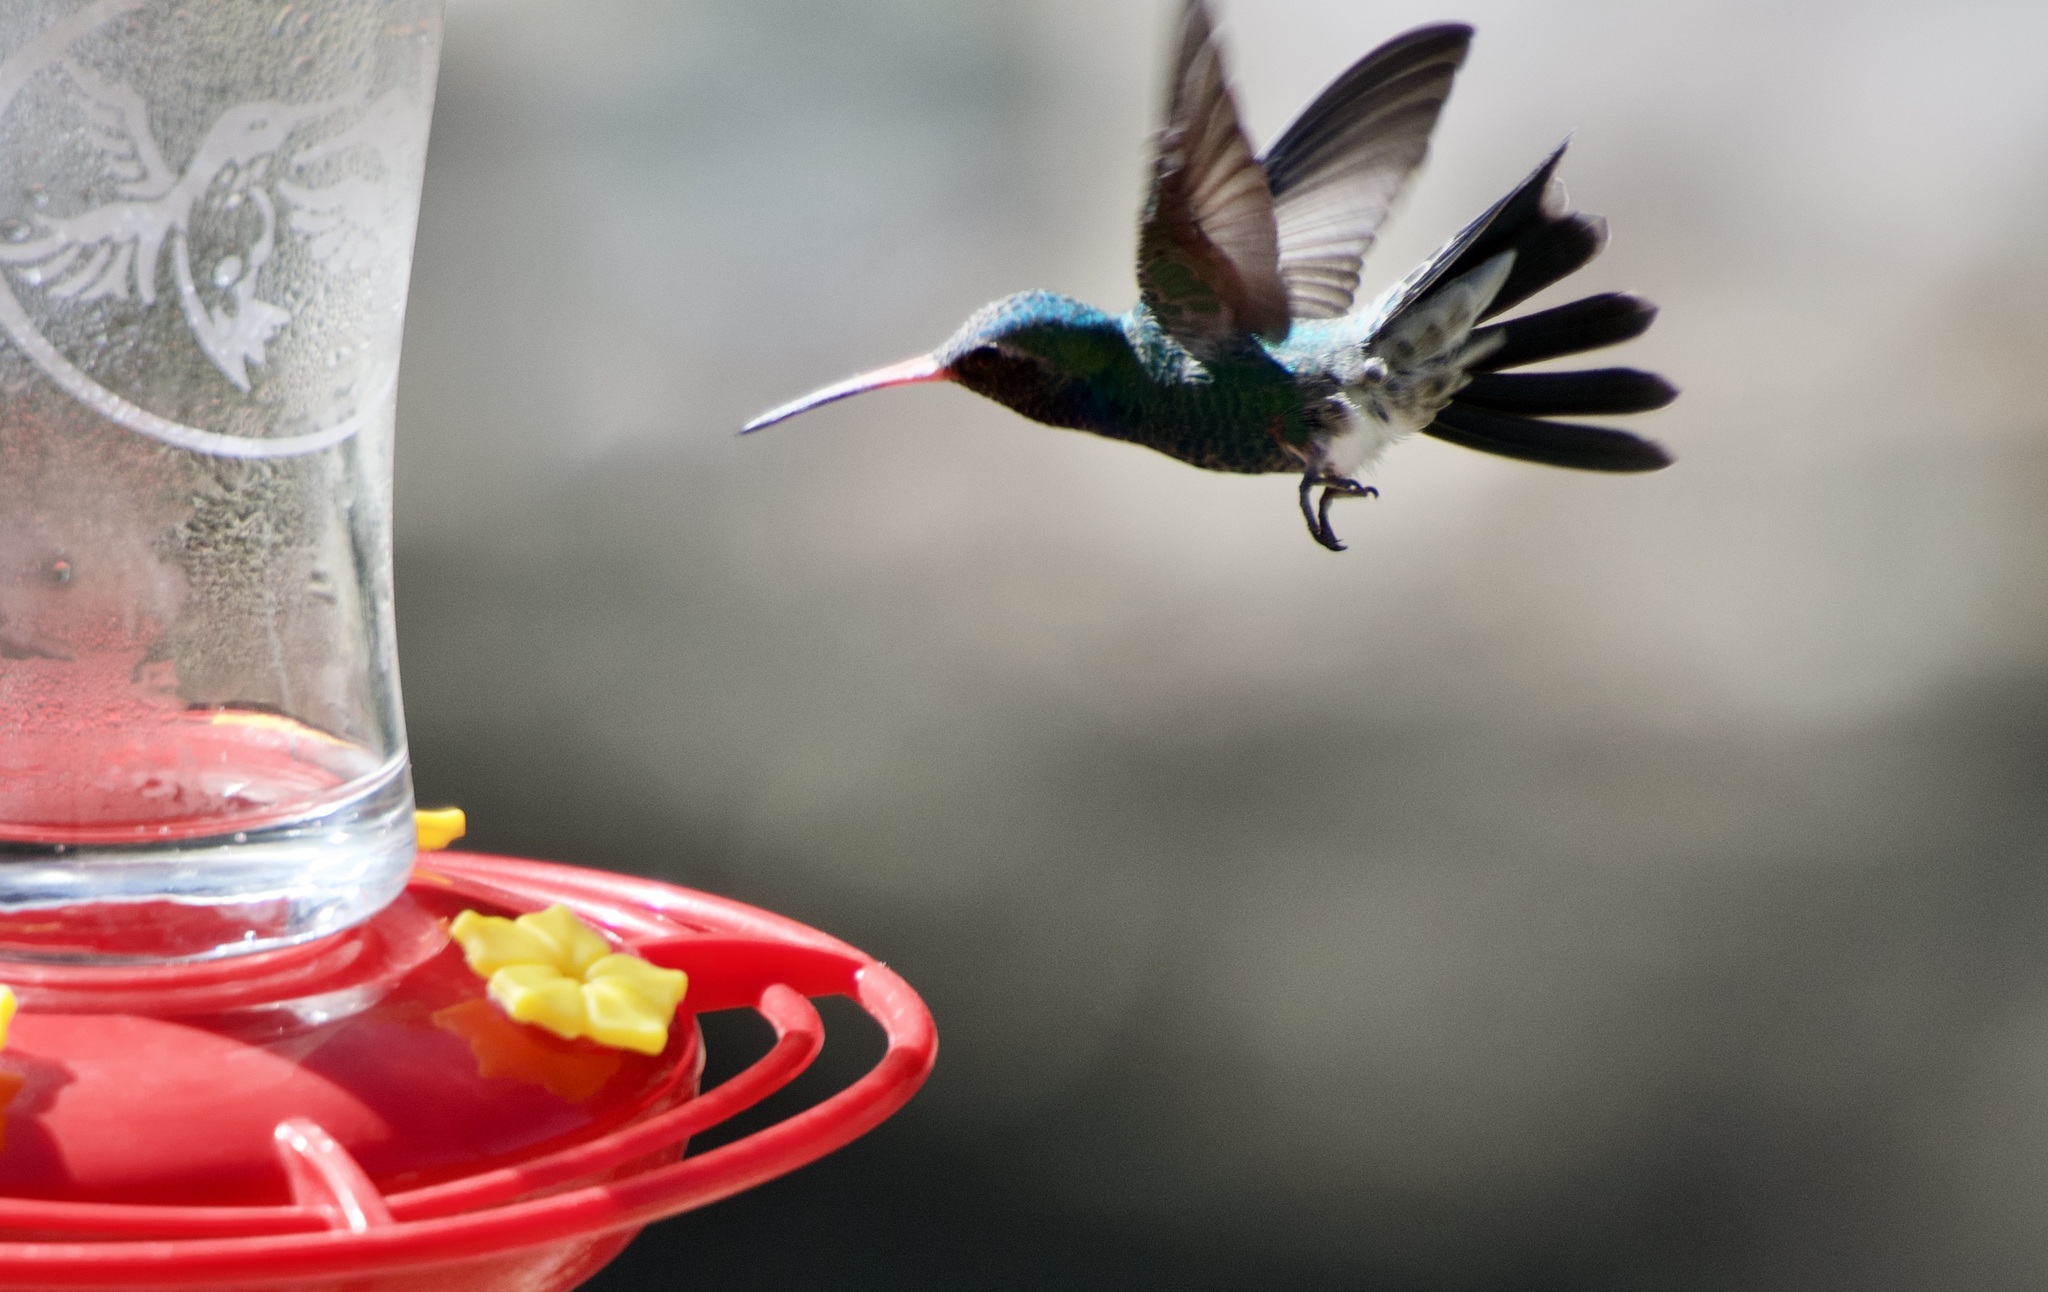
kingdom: Animalia
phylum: Chordata
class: Aves
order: Apodiformes
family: Trochilidae
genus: Cynanthus
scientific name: Cynanthus latirostris
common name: Broad-billed hummingbird
